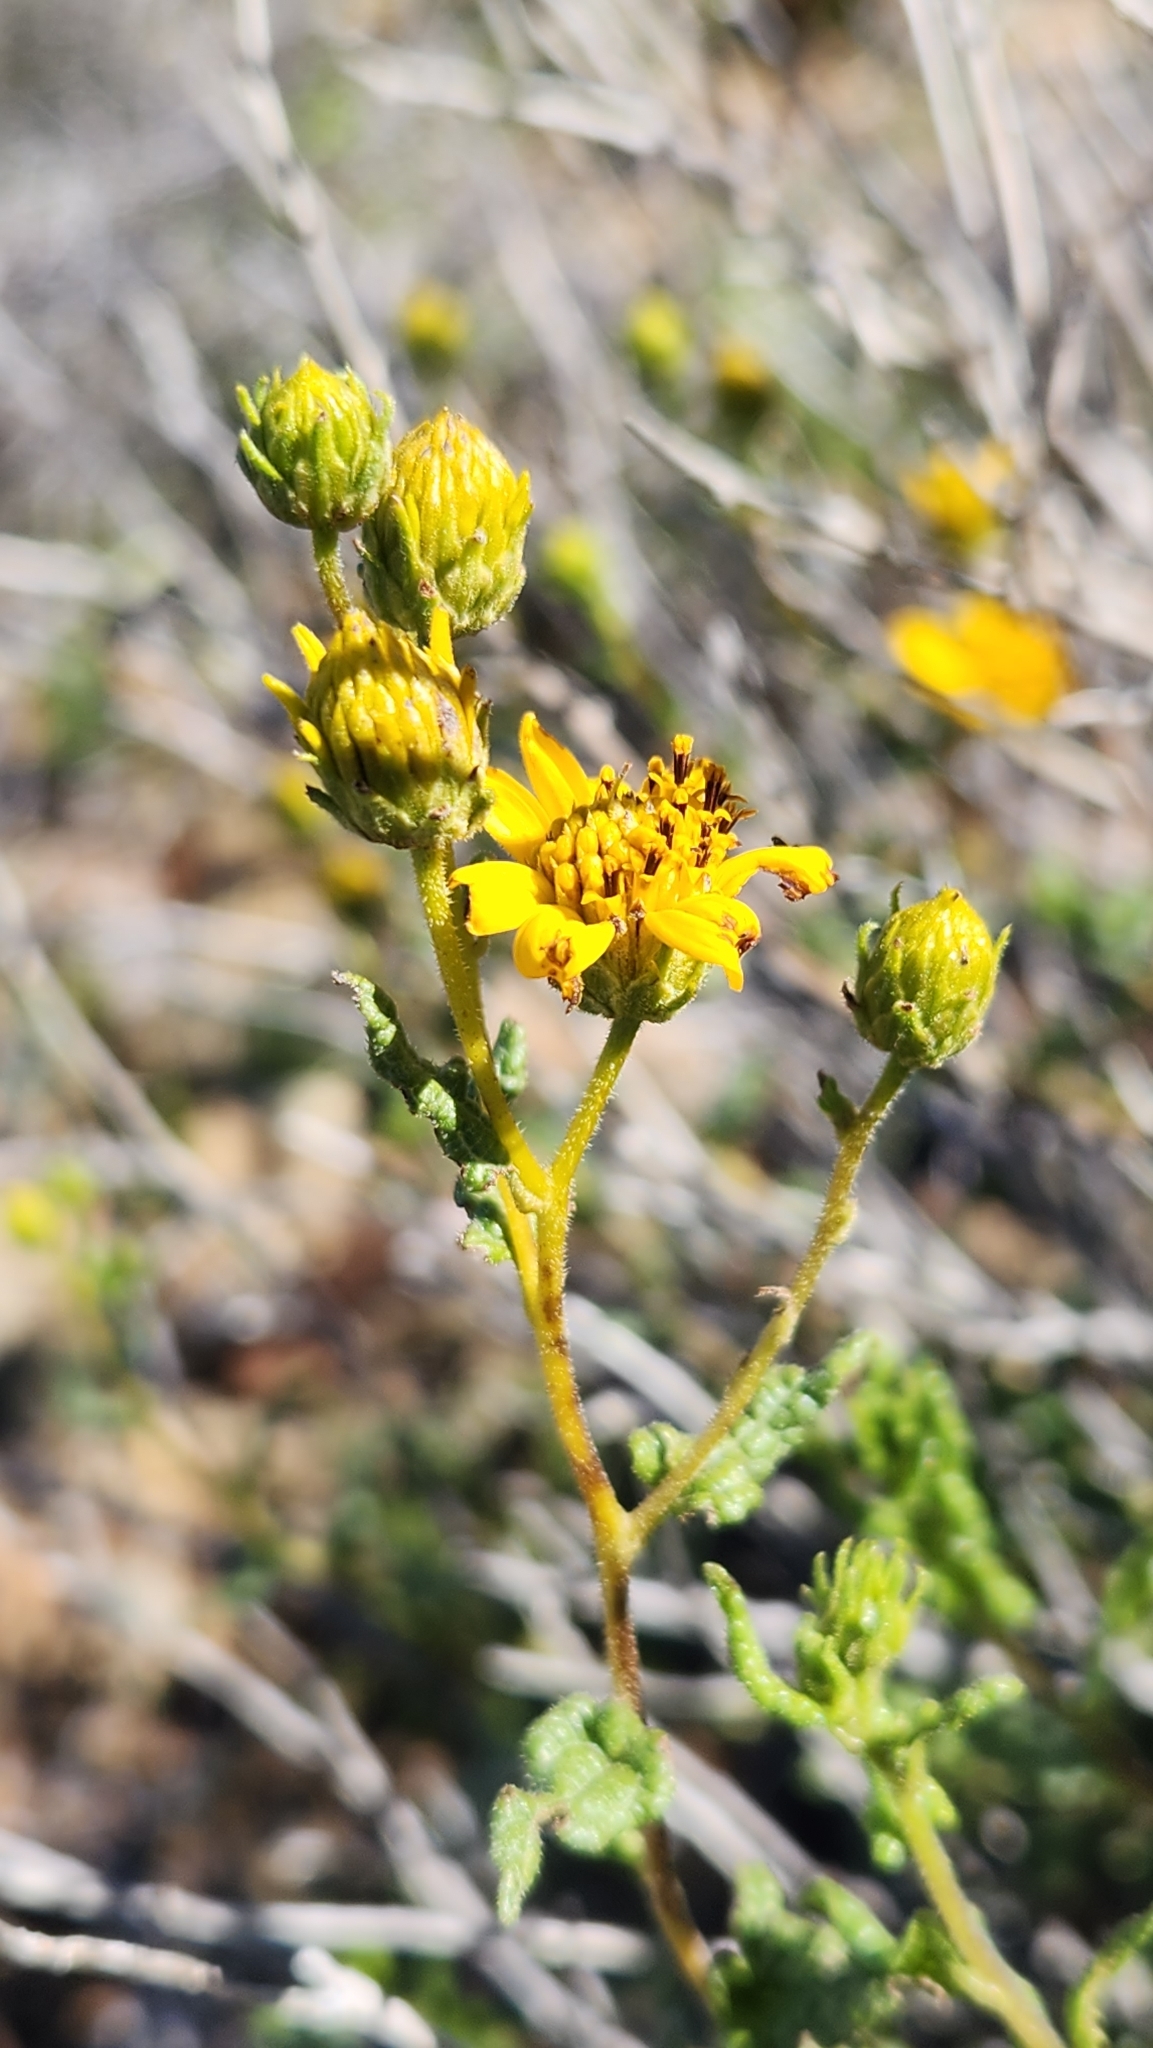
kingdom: Plantae
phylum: Tracheophyta
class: Magnoliopsida
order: Asterales
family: Asteraceae
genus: Bahiopsis
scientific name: Bahiopsis laciniata
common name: San diego county viguiera
